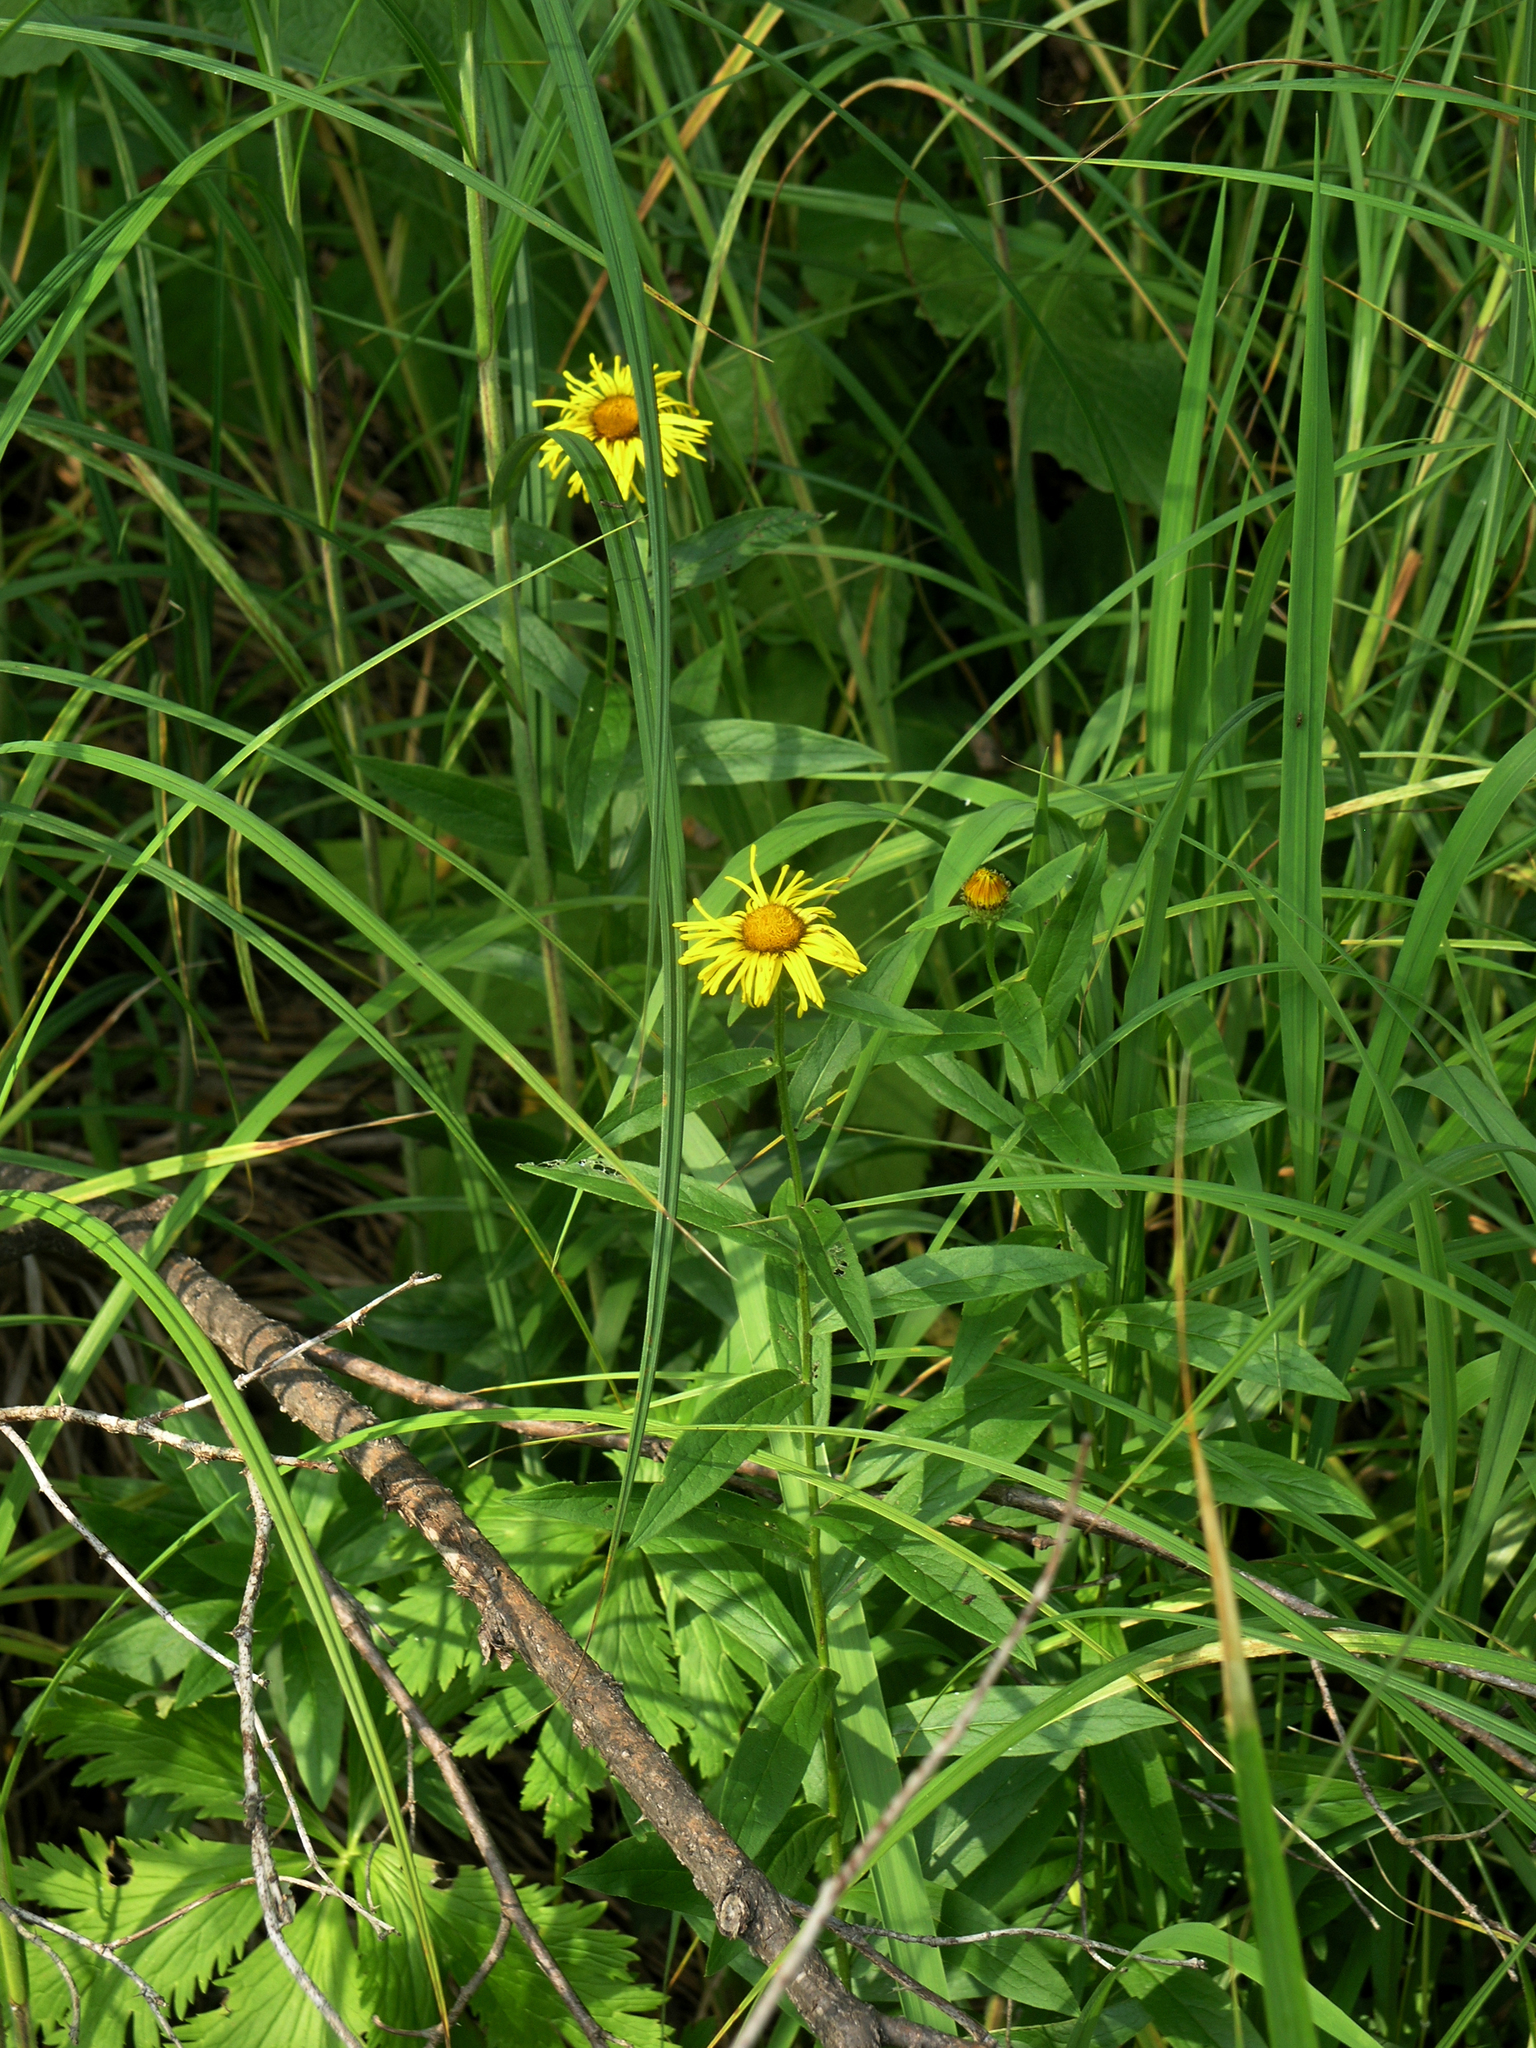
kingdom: Plantae
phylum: Tracheophyta
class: Magnoliopsida
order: Asterales
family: Asteraceae
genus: Pentanema
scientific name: Pentanema salicinum
